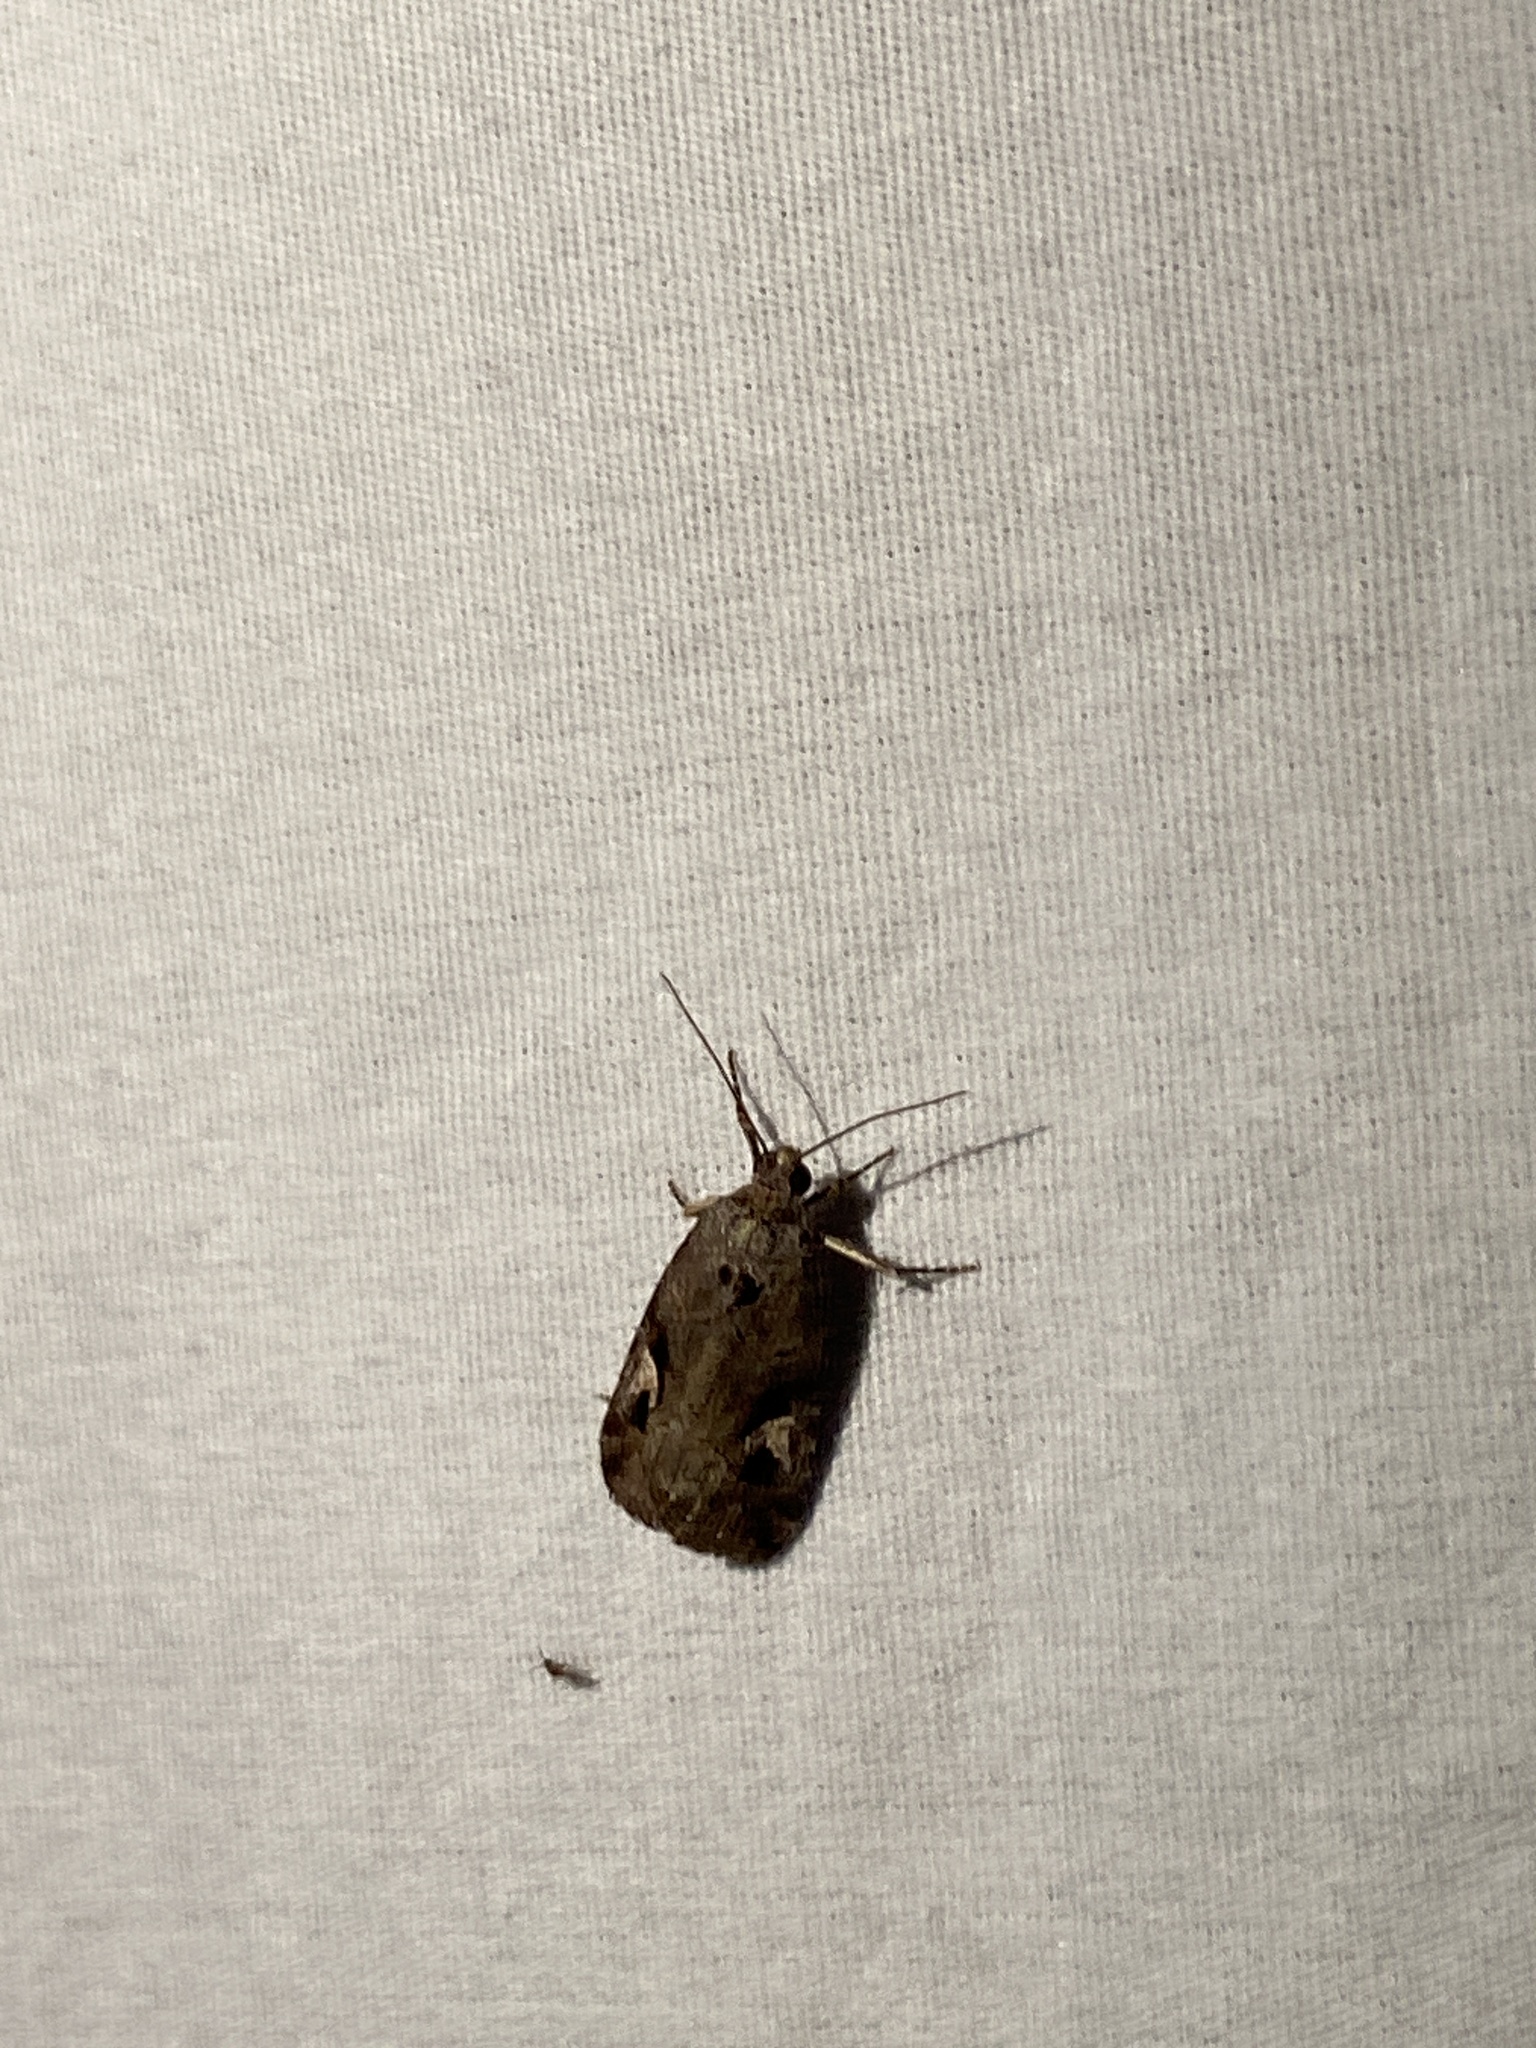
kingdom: Animalia
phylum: Arthropoda
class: Insecta
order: Lepidoptera
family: Noctuidae
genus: Metaponpneumata
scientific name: Metaponpneumata rogenhoferi
